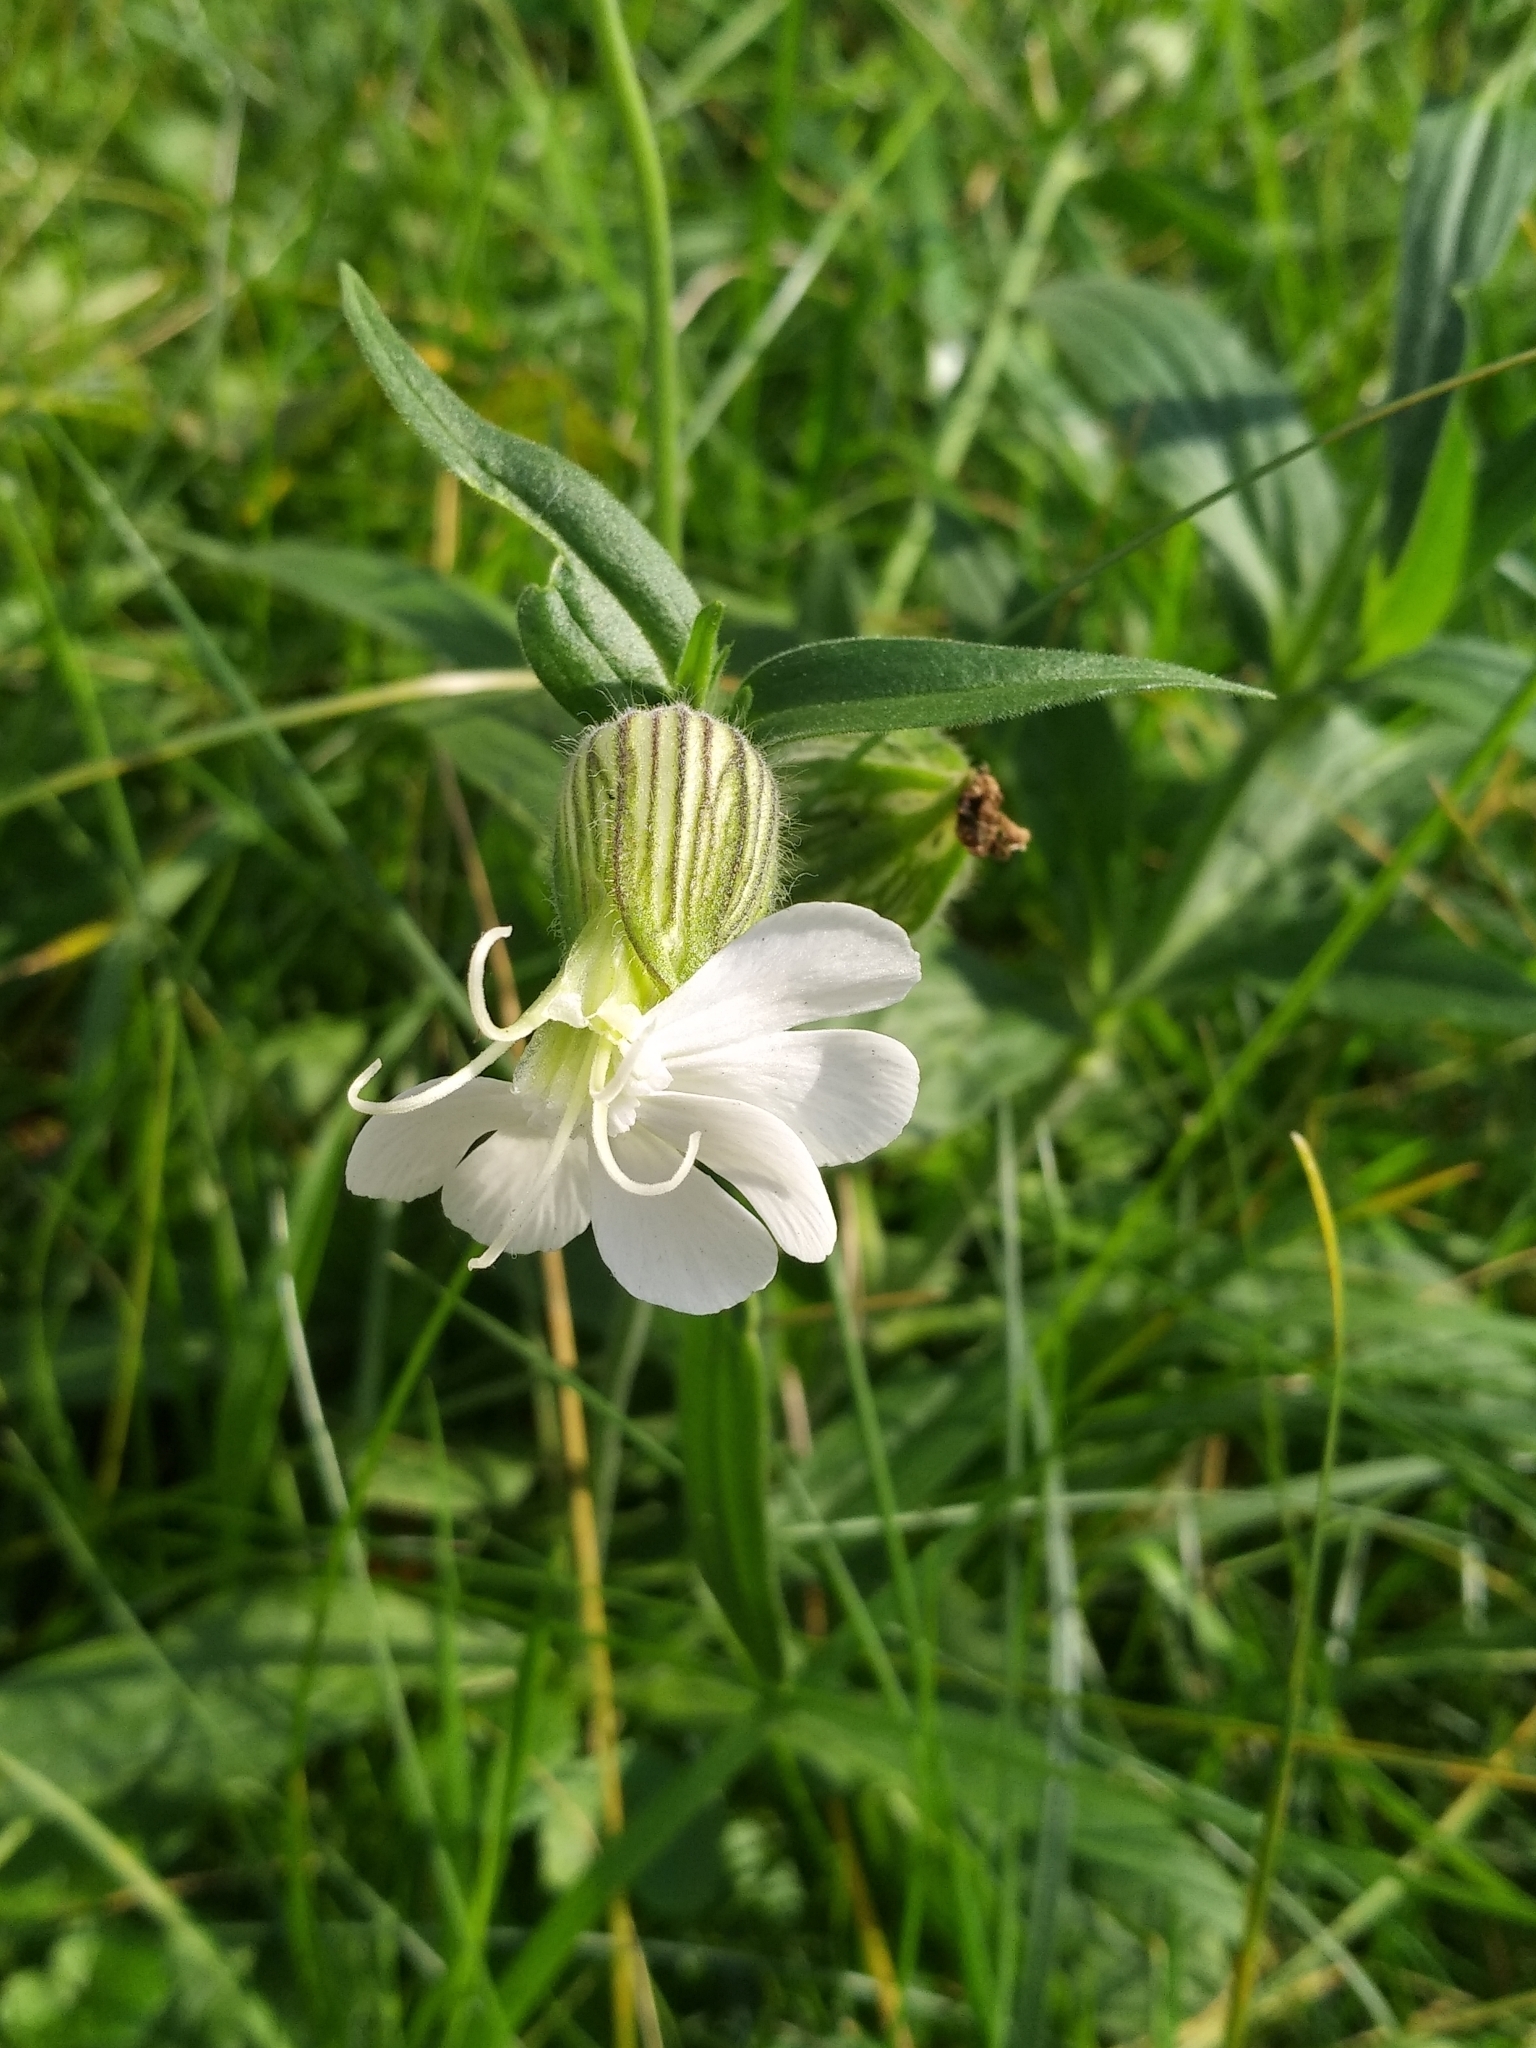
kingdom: Plantae
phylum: Tracheophyta
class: Magnoliopsida
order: Caryophyllales
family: Caryophyllaceae
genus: Silene
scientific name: Silene latifolia
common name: White campion
